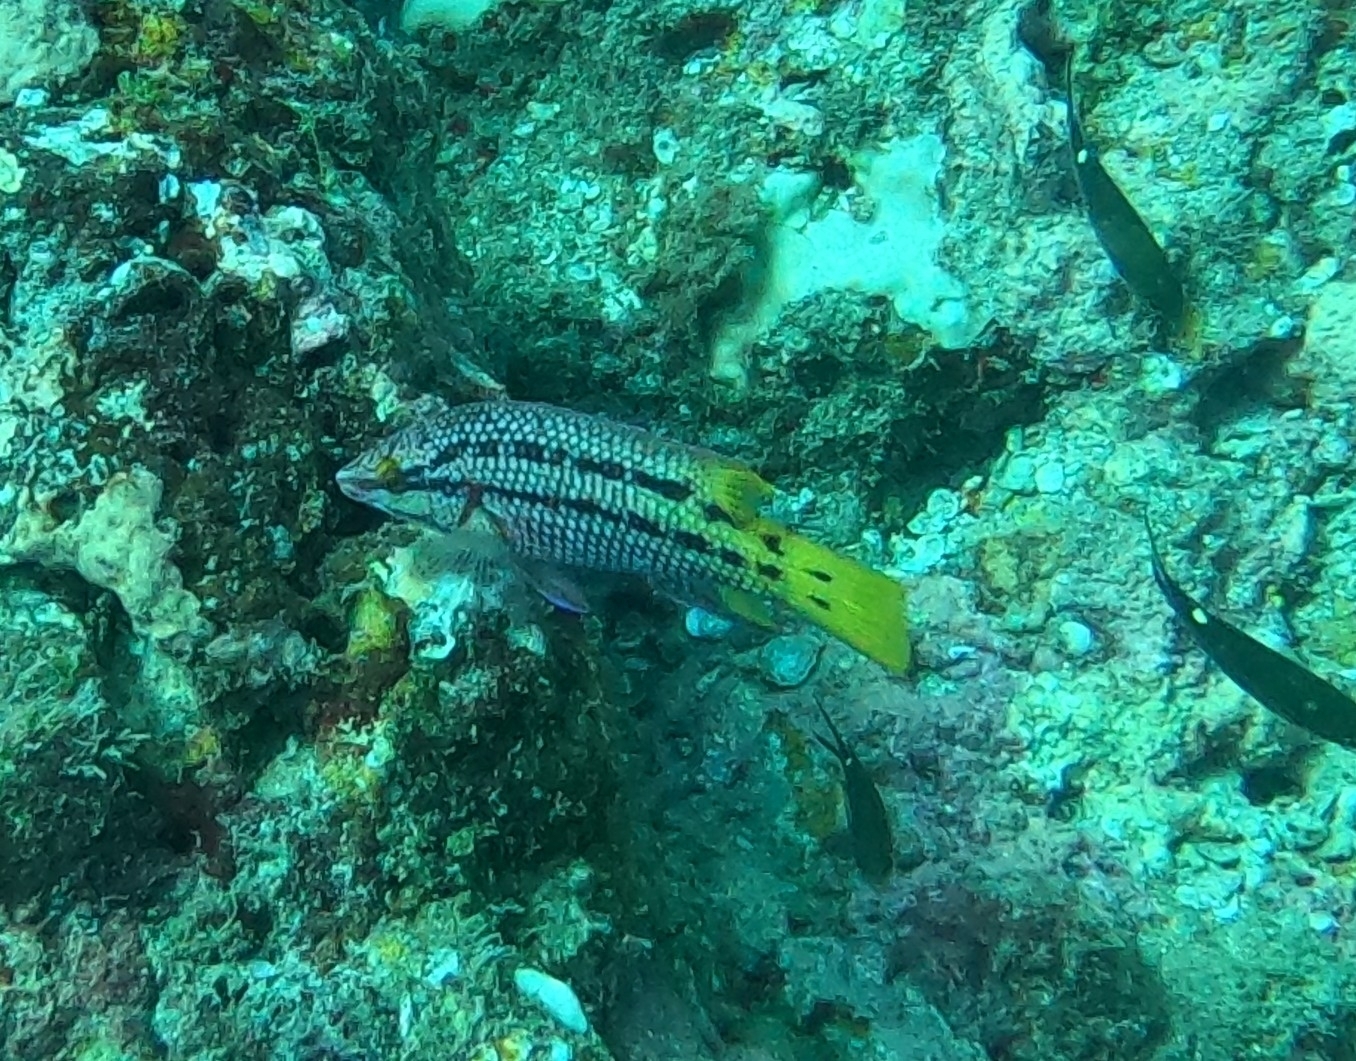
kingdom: Animalia
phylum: Chordata
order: Perciformes
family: Labridae
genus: Bodianus
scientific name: Bodianus diplotaenia
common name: Mexican hogfish
